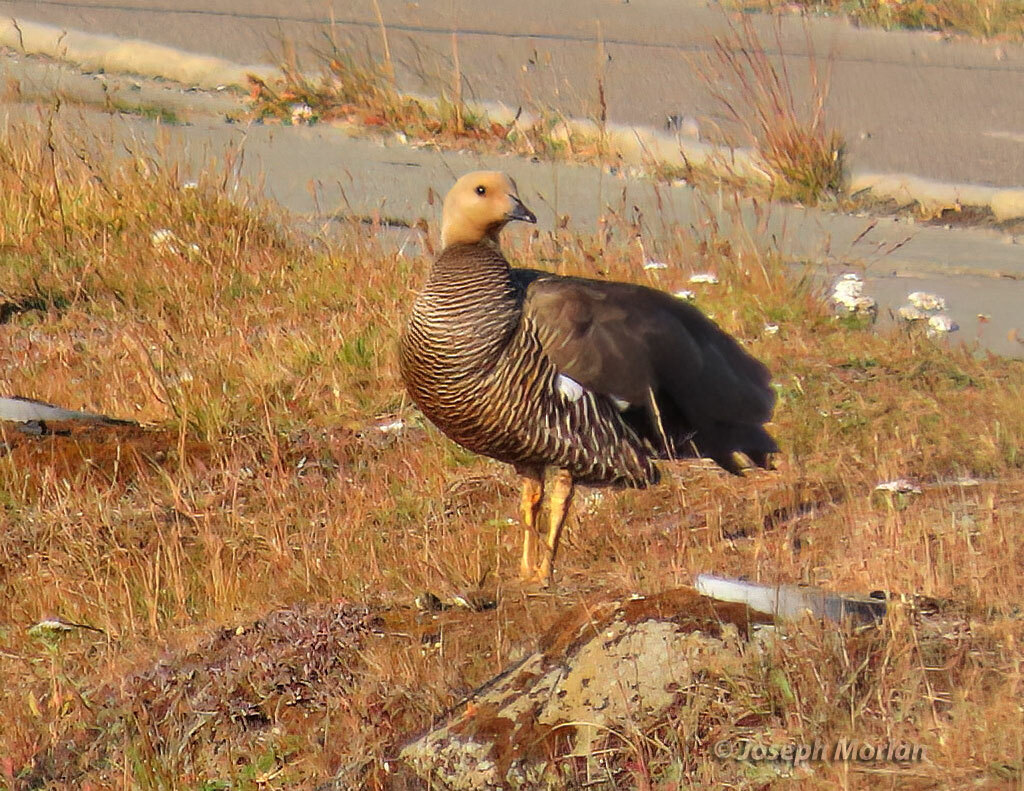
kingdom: Animalia
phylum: Chordata
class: Aves
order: Anseriformes
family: Anatidae
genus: Chloephaga
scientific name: Chloephaga picta
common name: Upland goose
